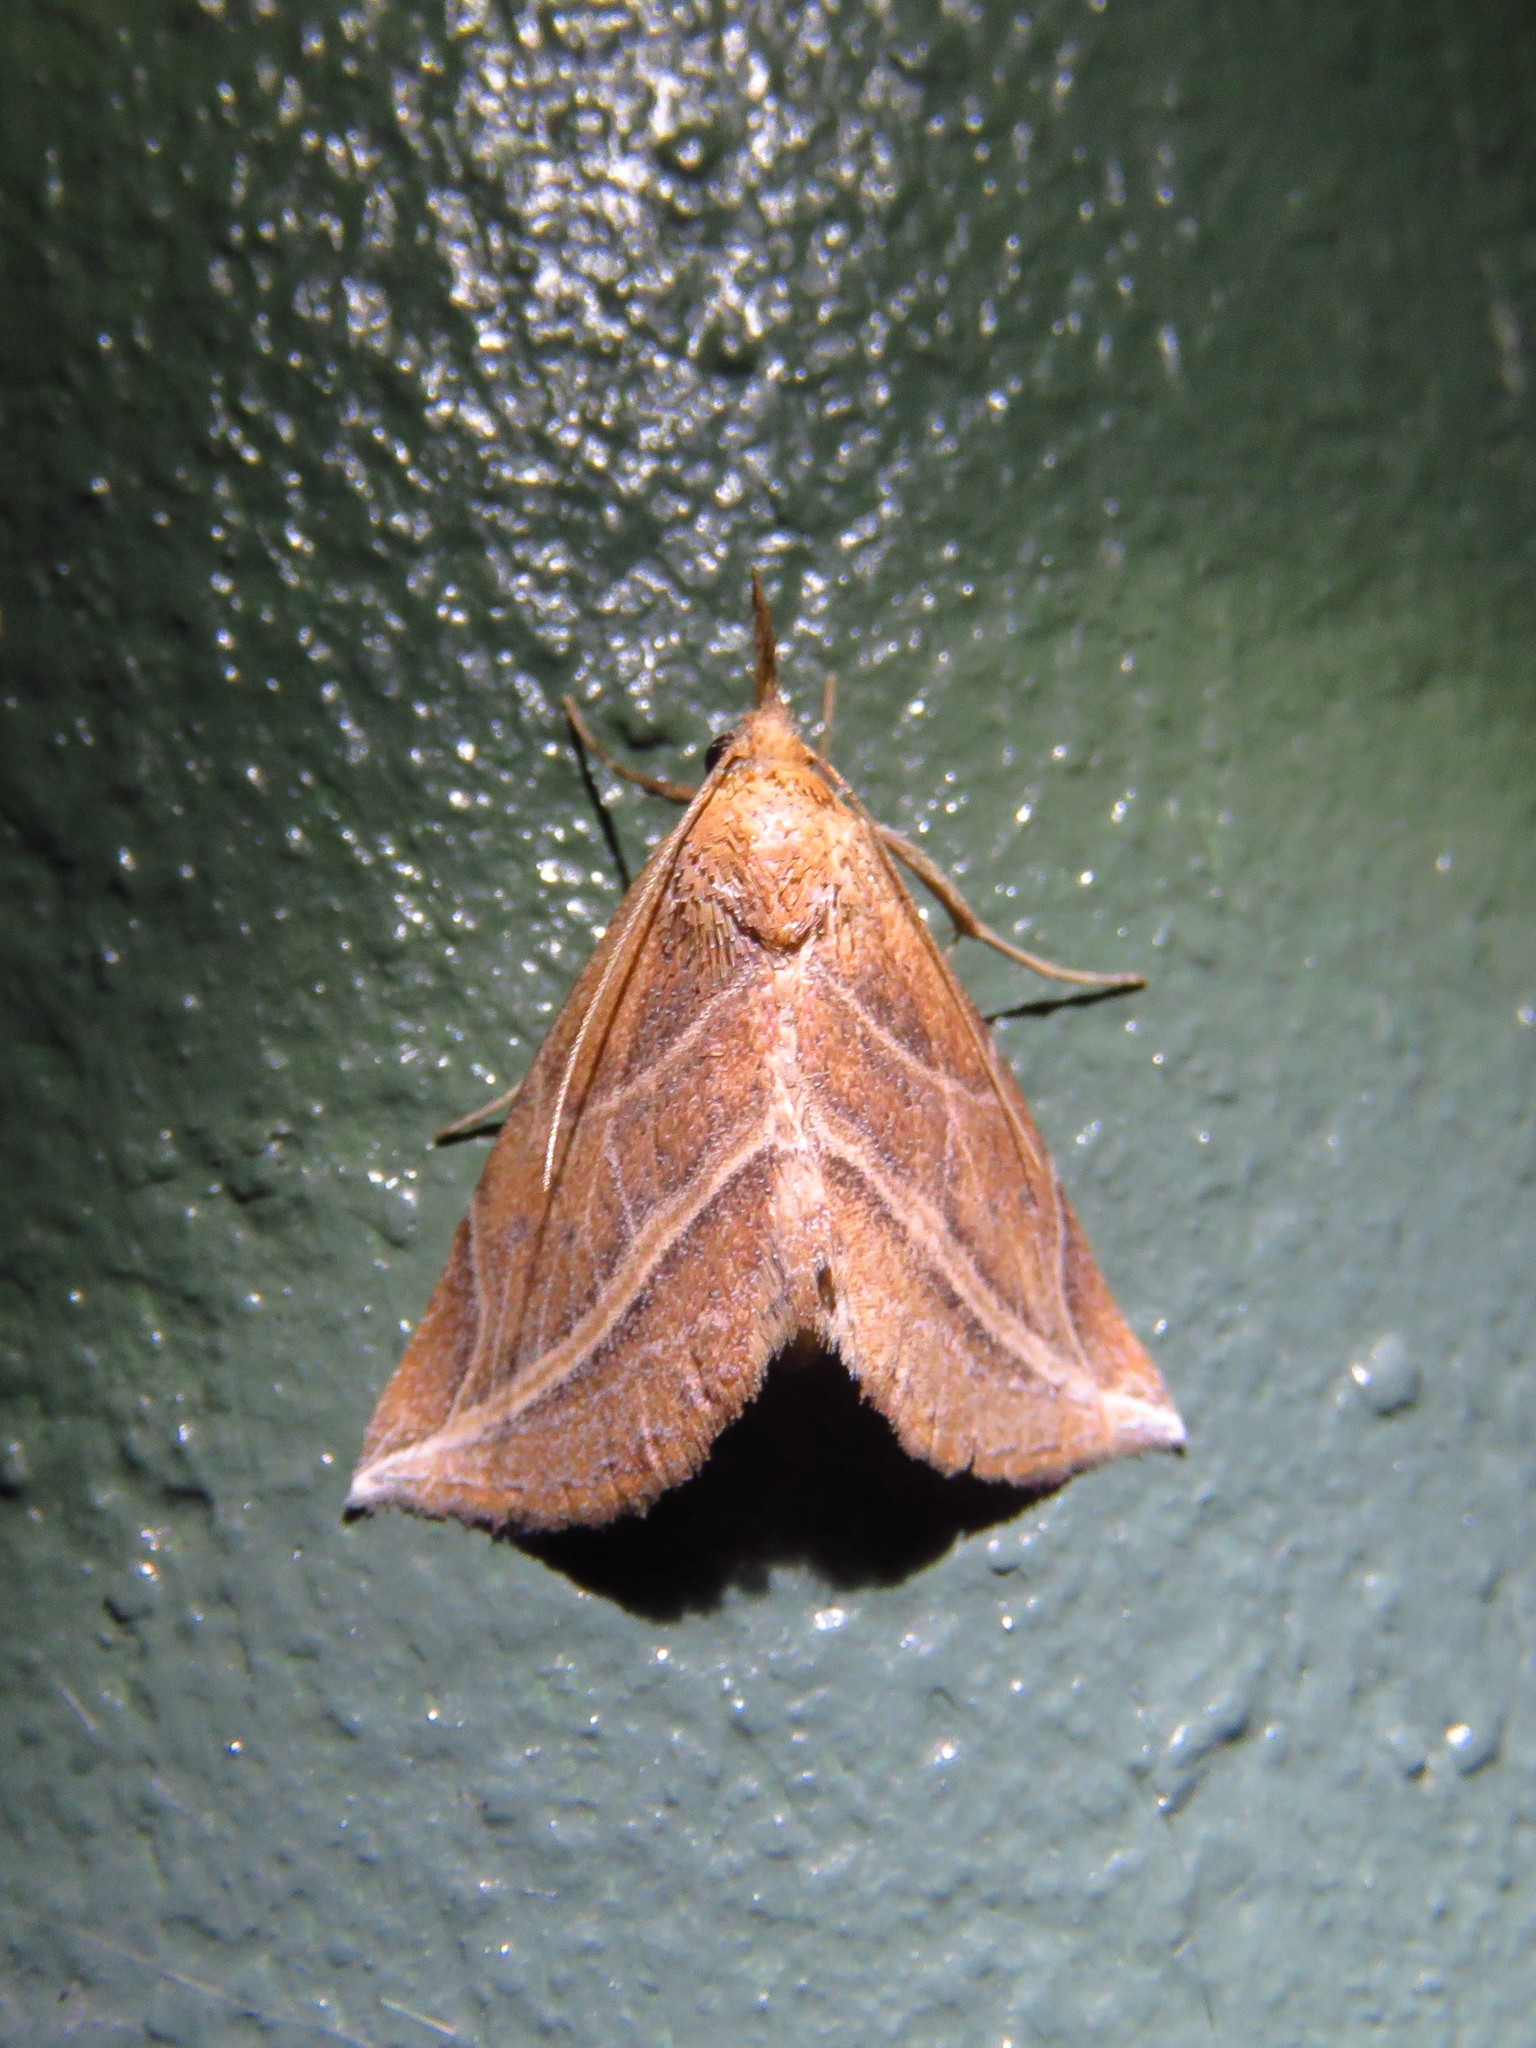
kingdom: Animalia
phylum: Arthropoda
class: Insecta
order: Lepidoptera
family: Erebidae
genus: Phyprosopus
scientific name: Phyprosopus callitrichoides
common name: Curved-lined owlet
